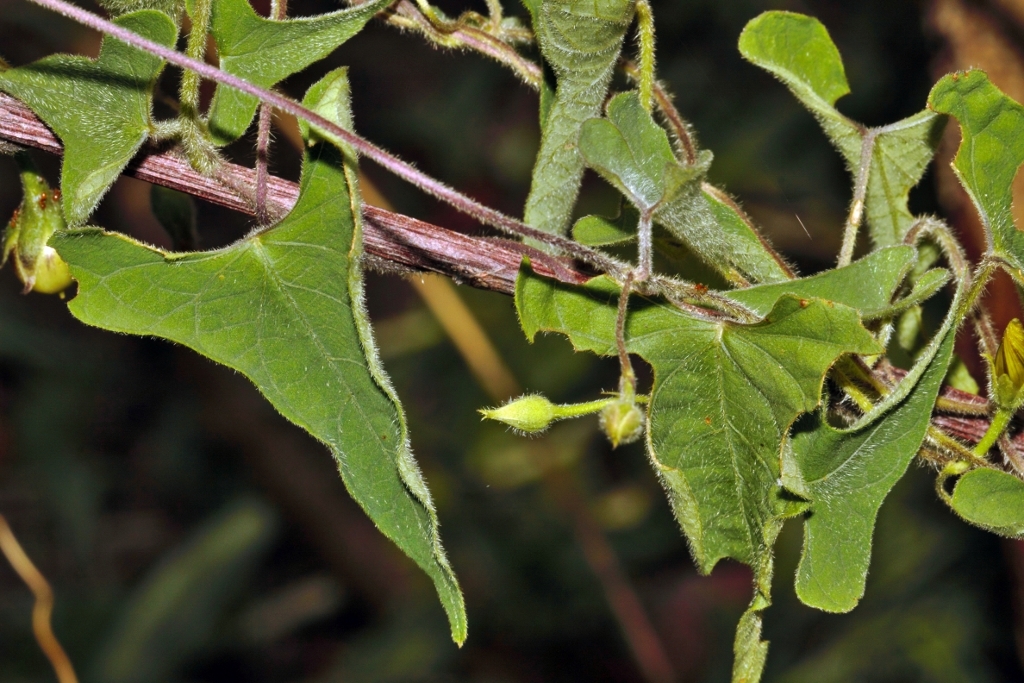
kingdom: Plantae
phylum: Tracheophyta
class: Magnoliopsida
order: Solanales
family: Convolvulaceae
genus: Ipomoea
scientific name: Ipomoea obscura
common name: Obscure morning-glory
